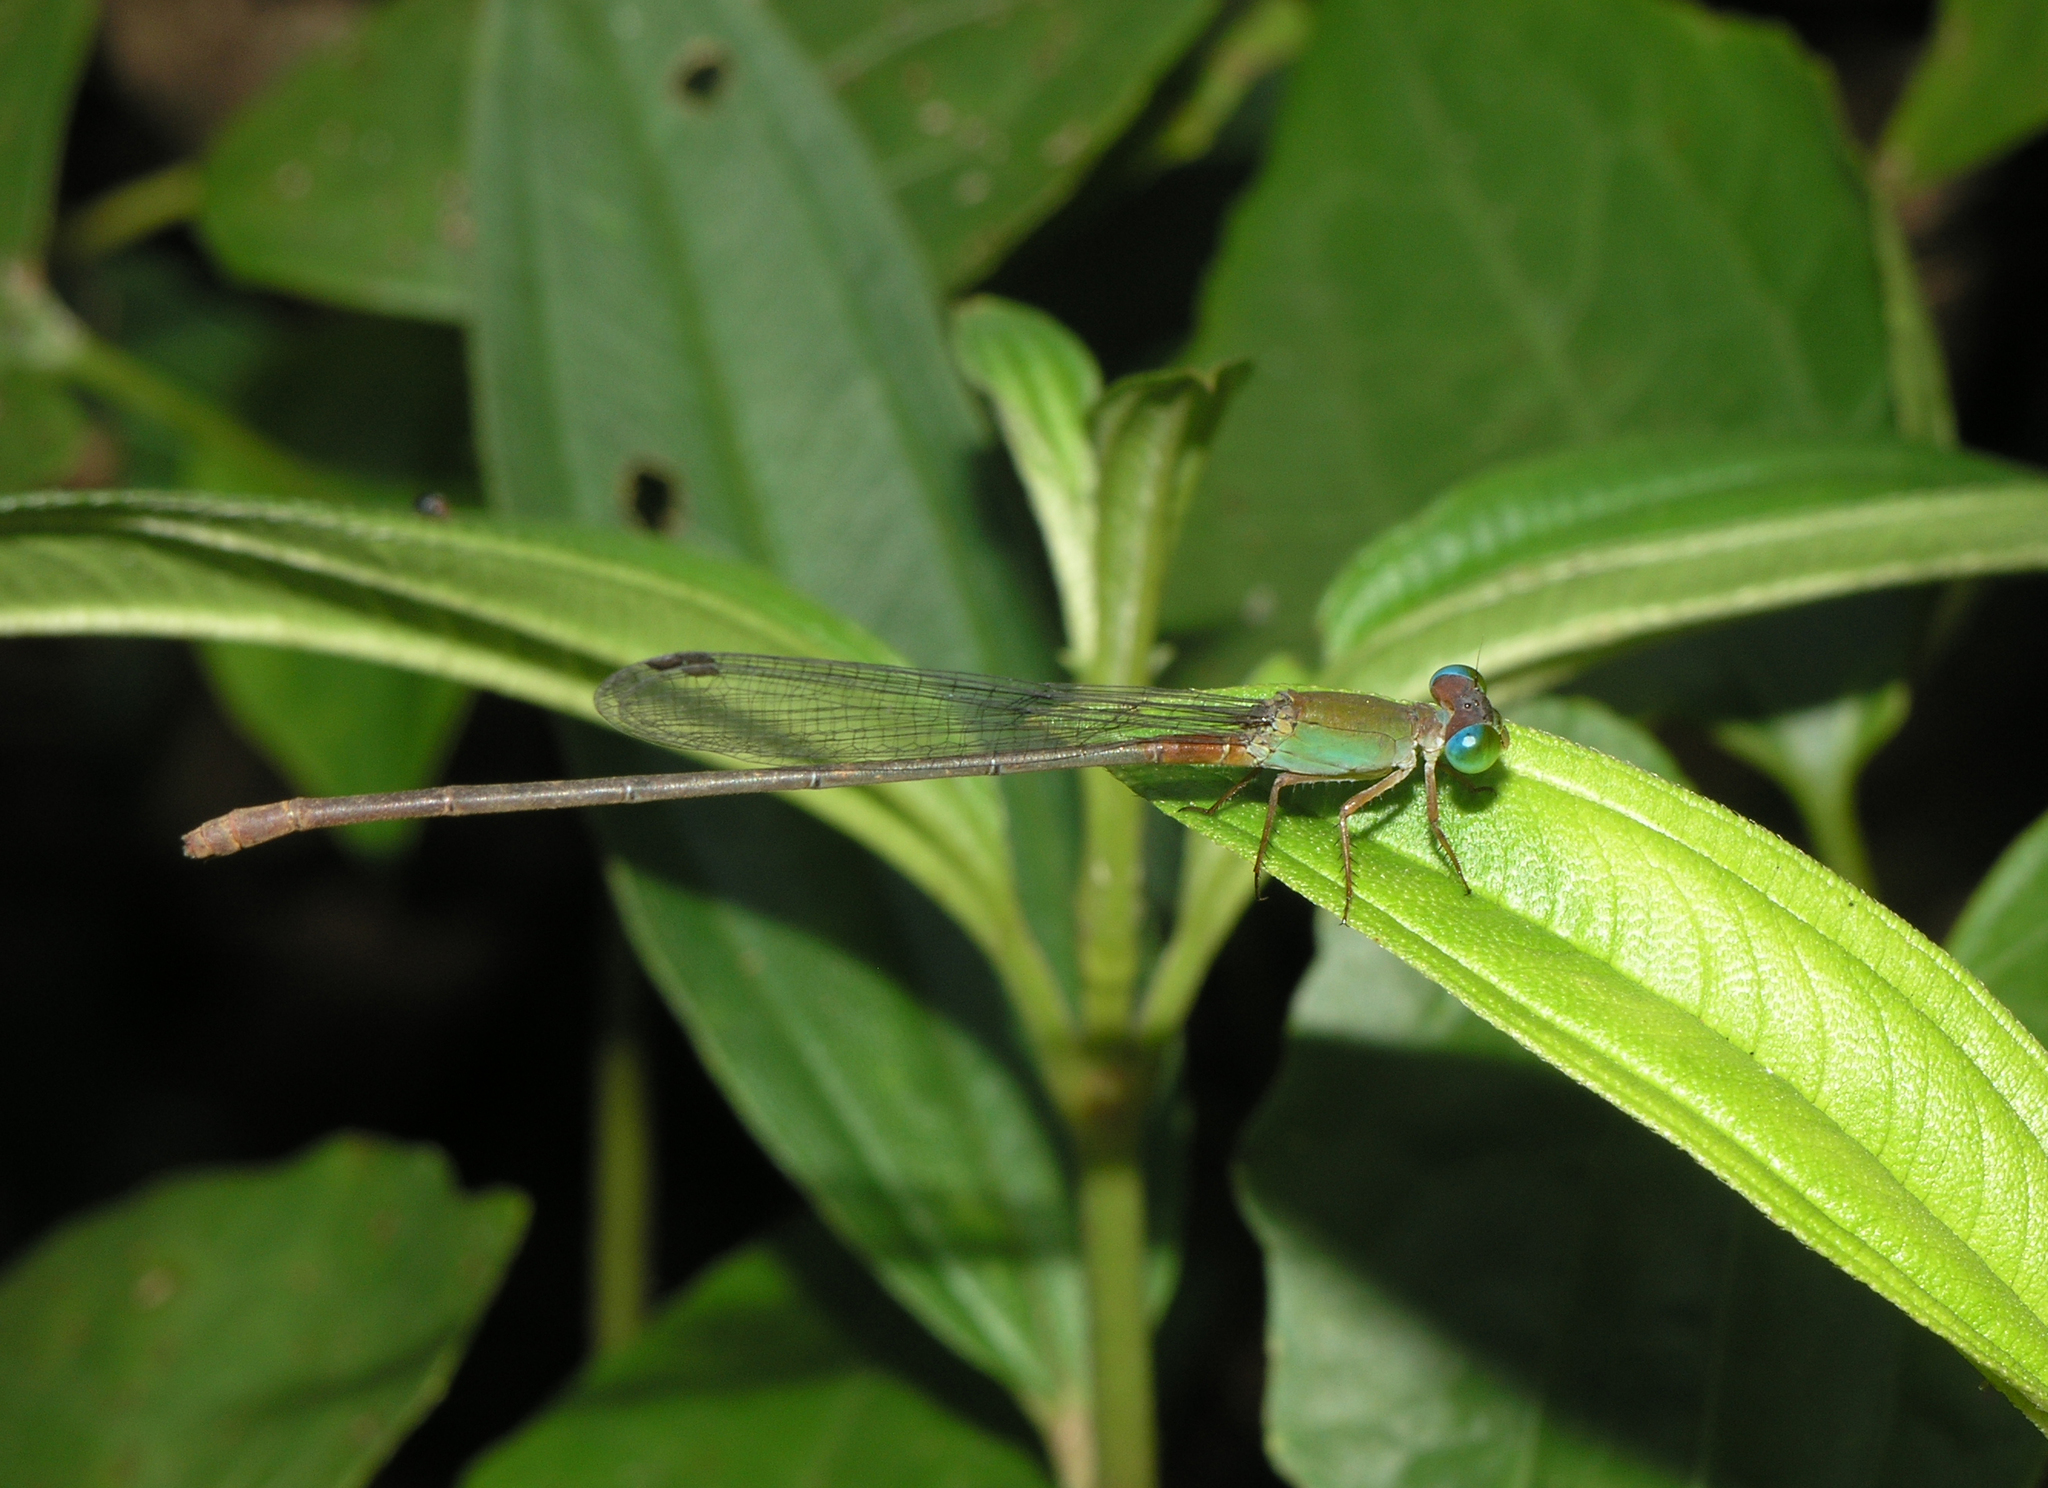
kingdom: Animalia
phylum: Arthropoda
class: Insecta
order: Odonata
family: Coenagrionidae
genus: Ceriagrion
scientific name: Ceriagrion cerinorubellum
